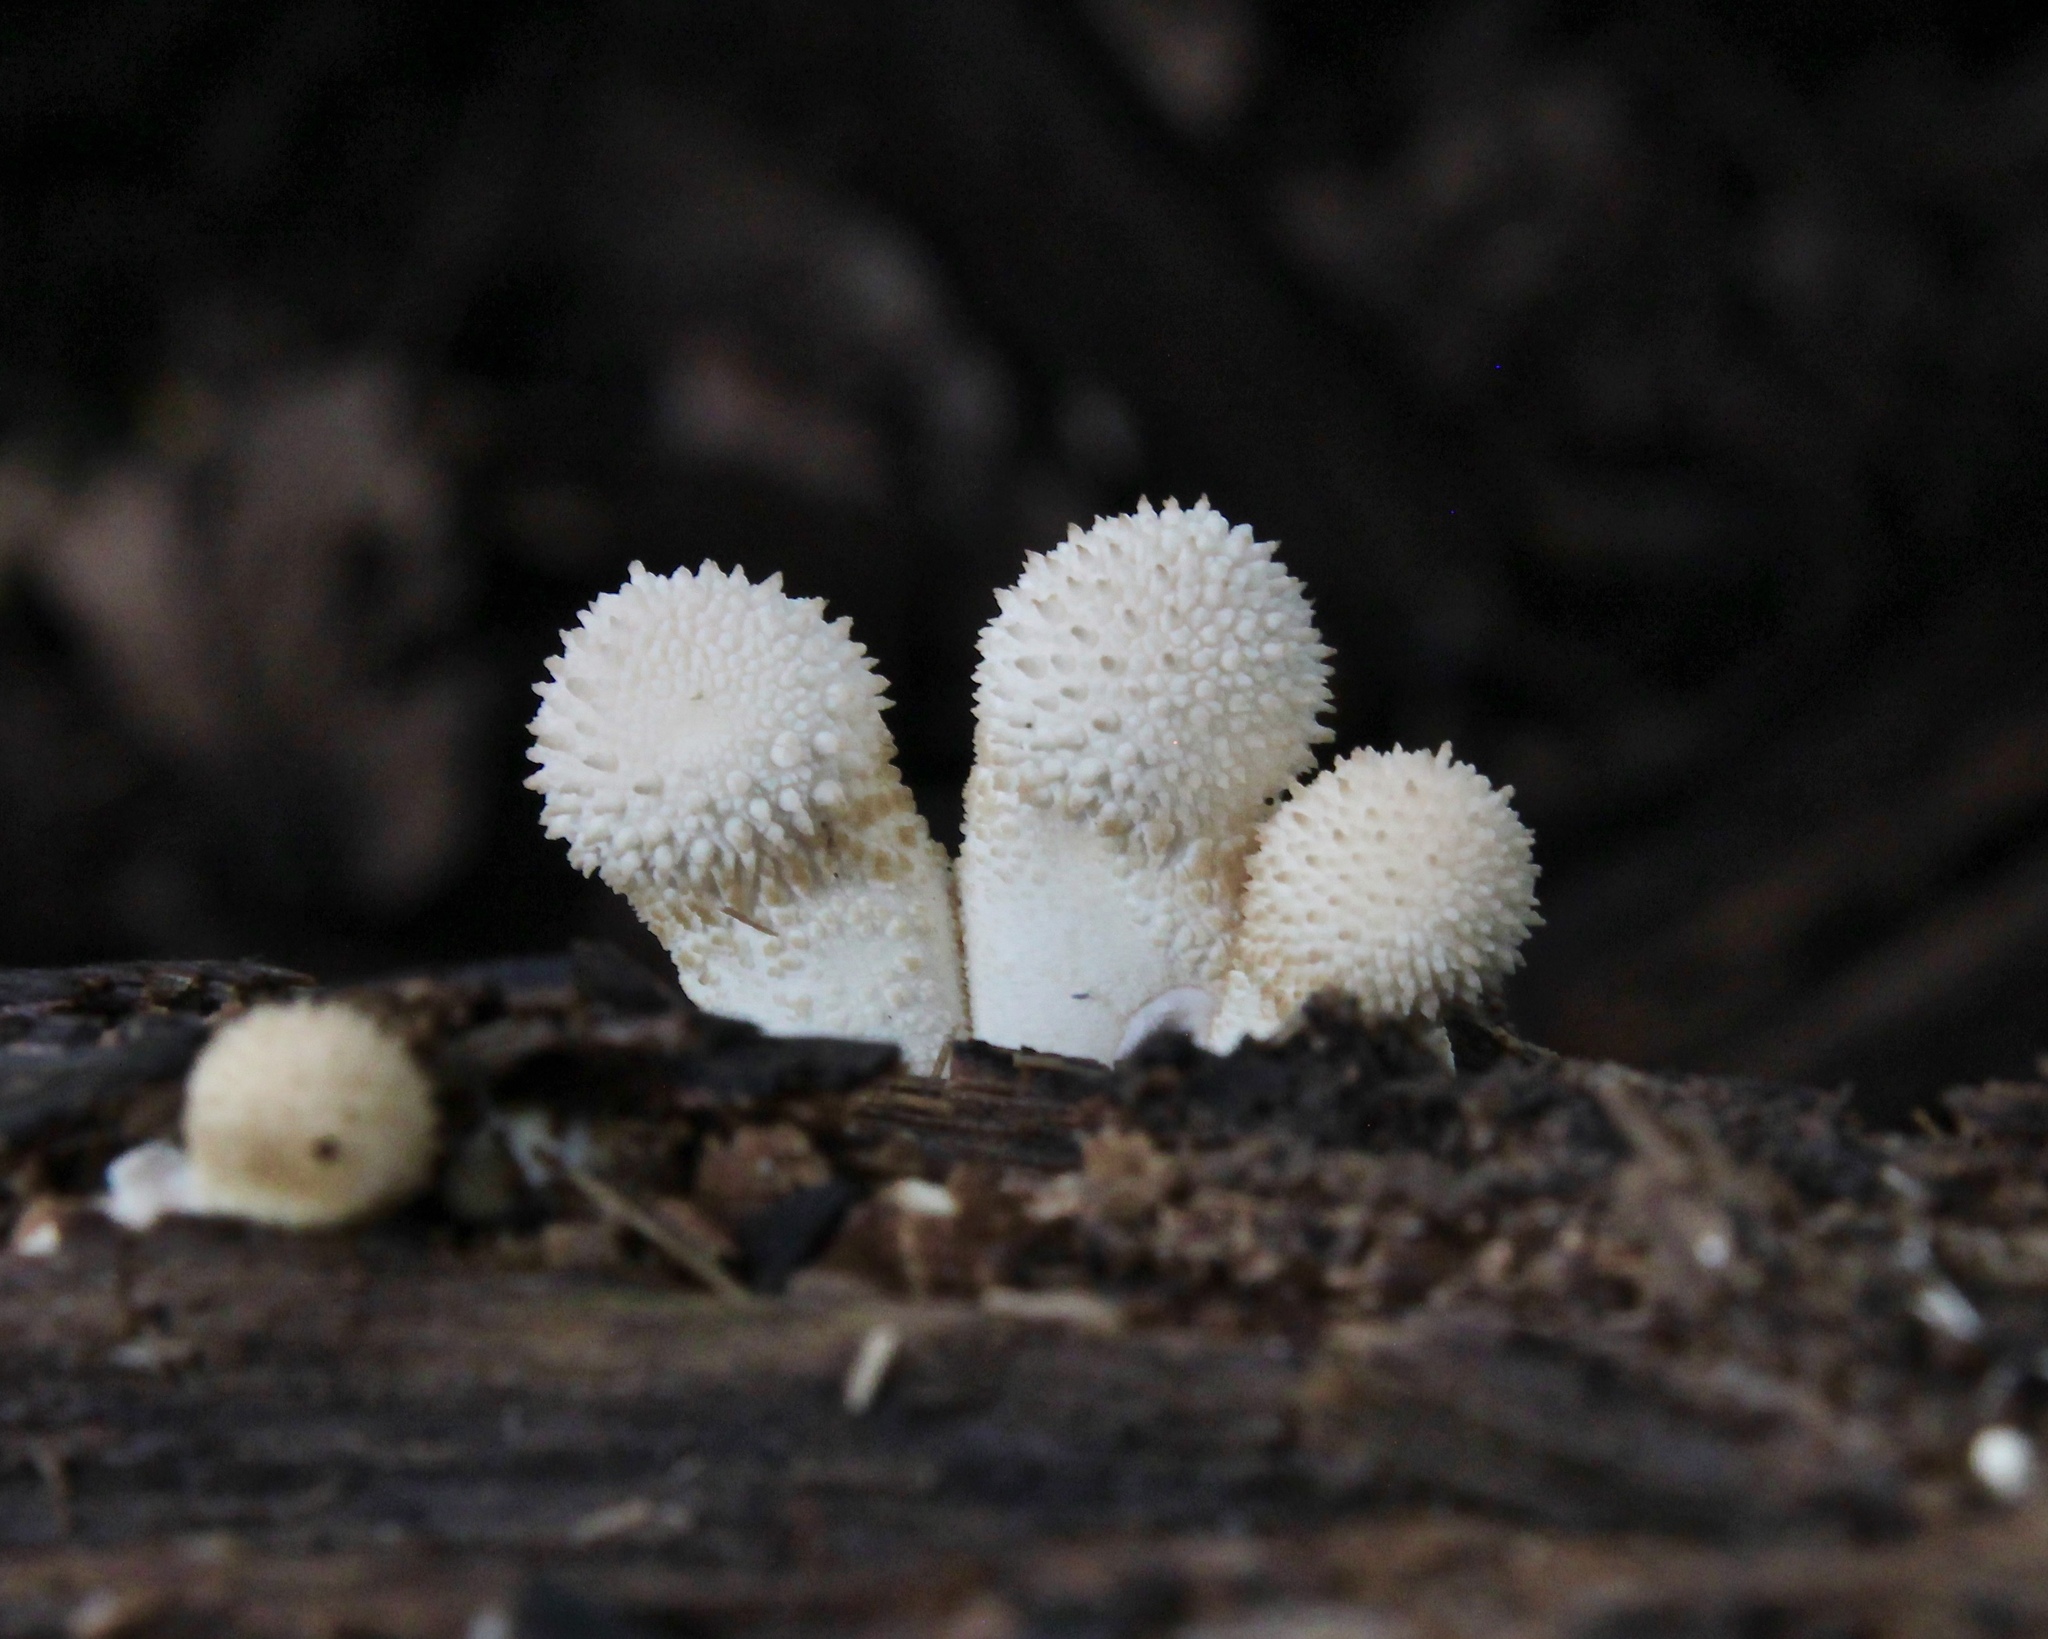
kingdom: Fungi
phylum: Basidiomycota
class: Agaricomycetes
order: Agaricales
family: Lycoperdaceae
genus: Lycoperdon
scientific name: Lycoperdon perlatum
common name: Common puffball
